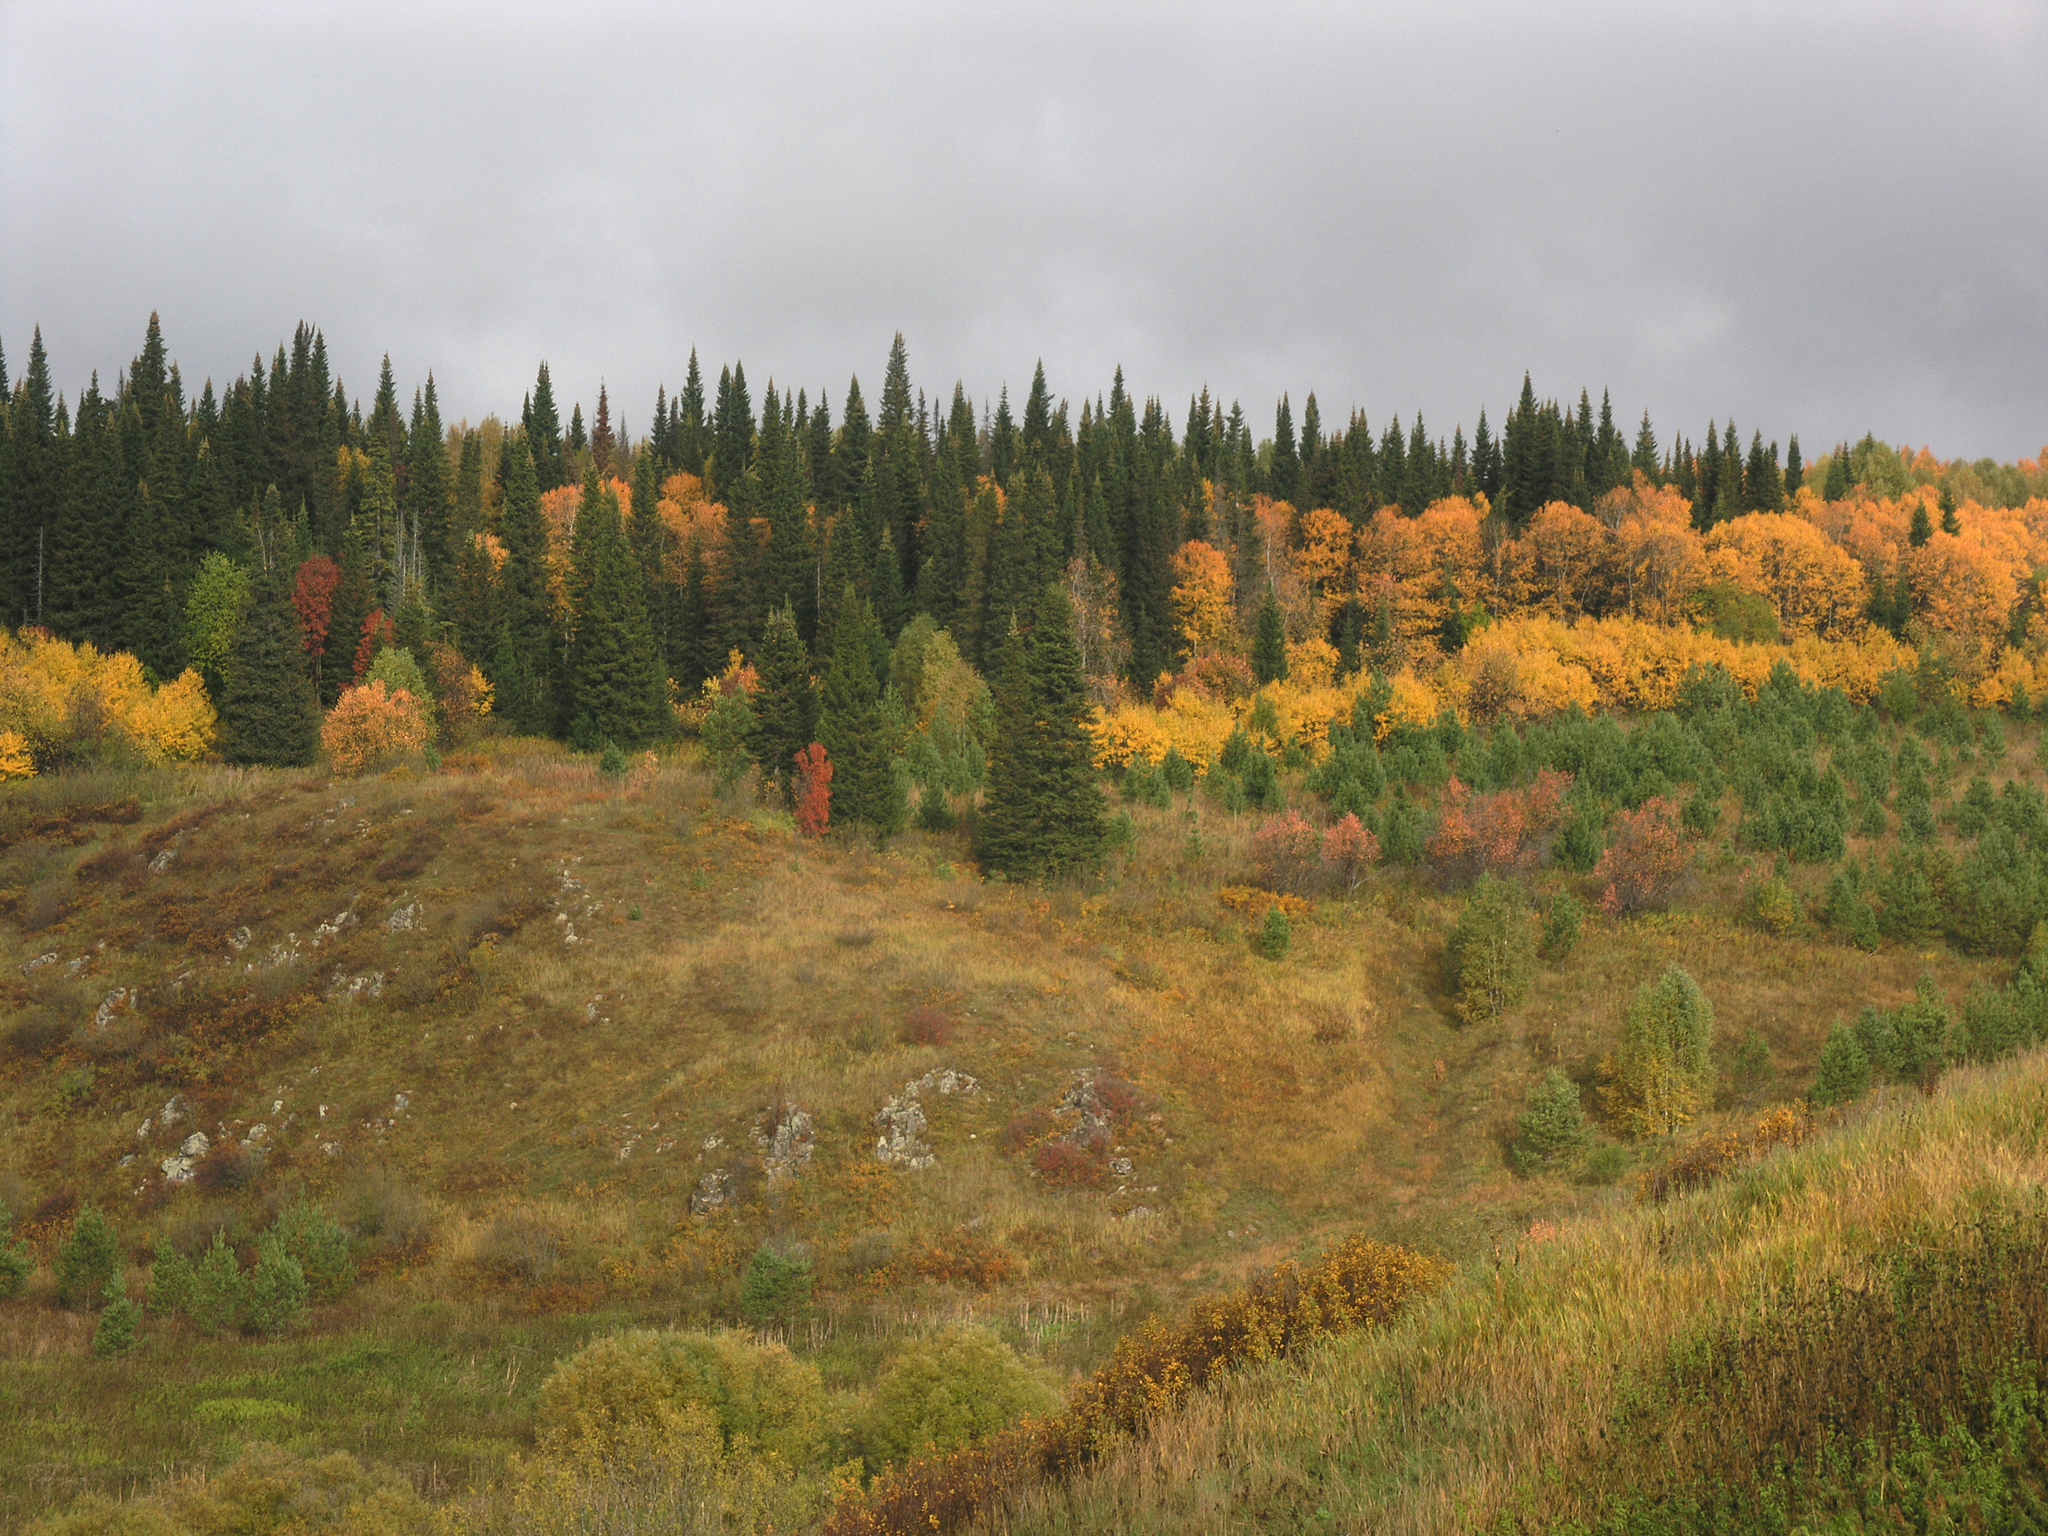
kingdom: Plantae
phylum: Tracheophyta
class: Pinopsida
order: Pinales
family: Pinaceae
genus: Abies
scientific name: Abies sibirica
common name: Siberian fir
